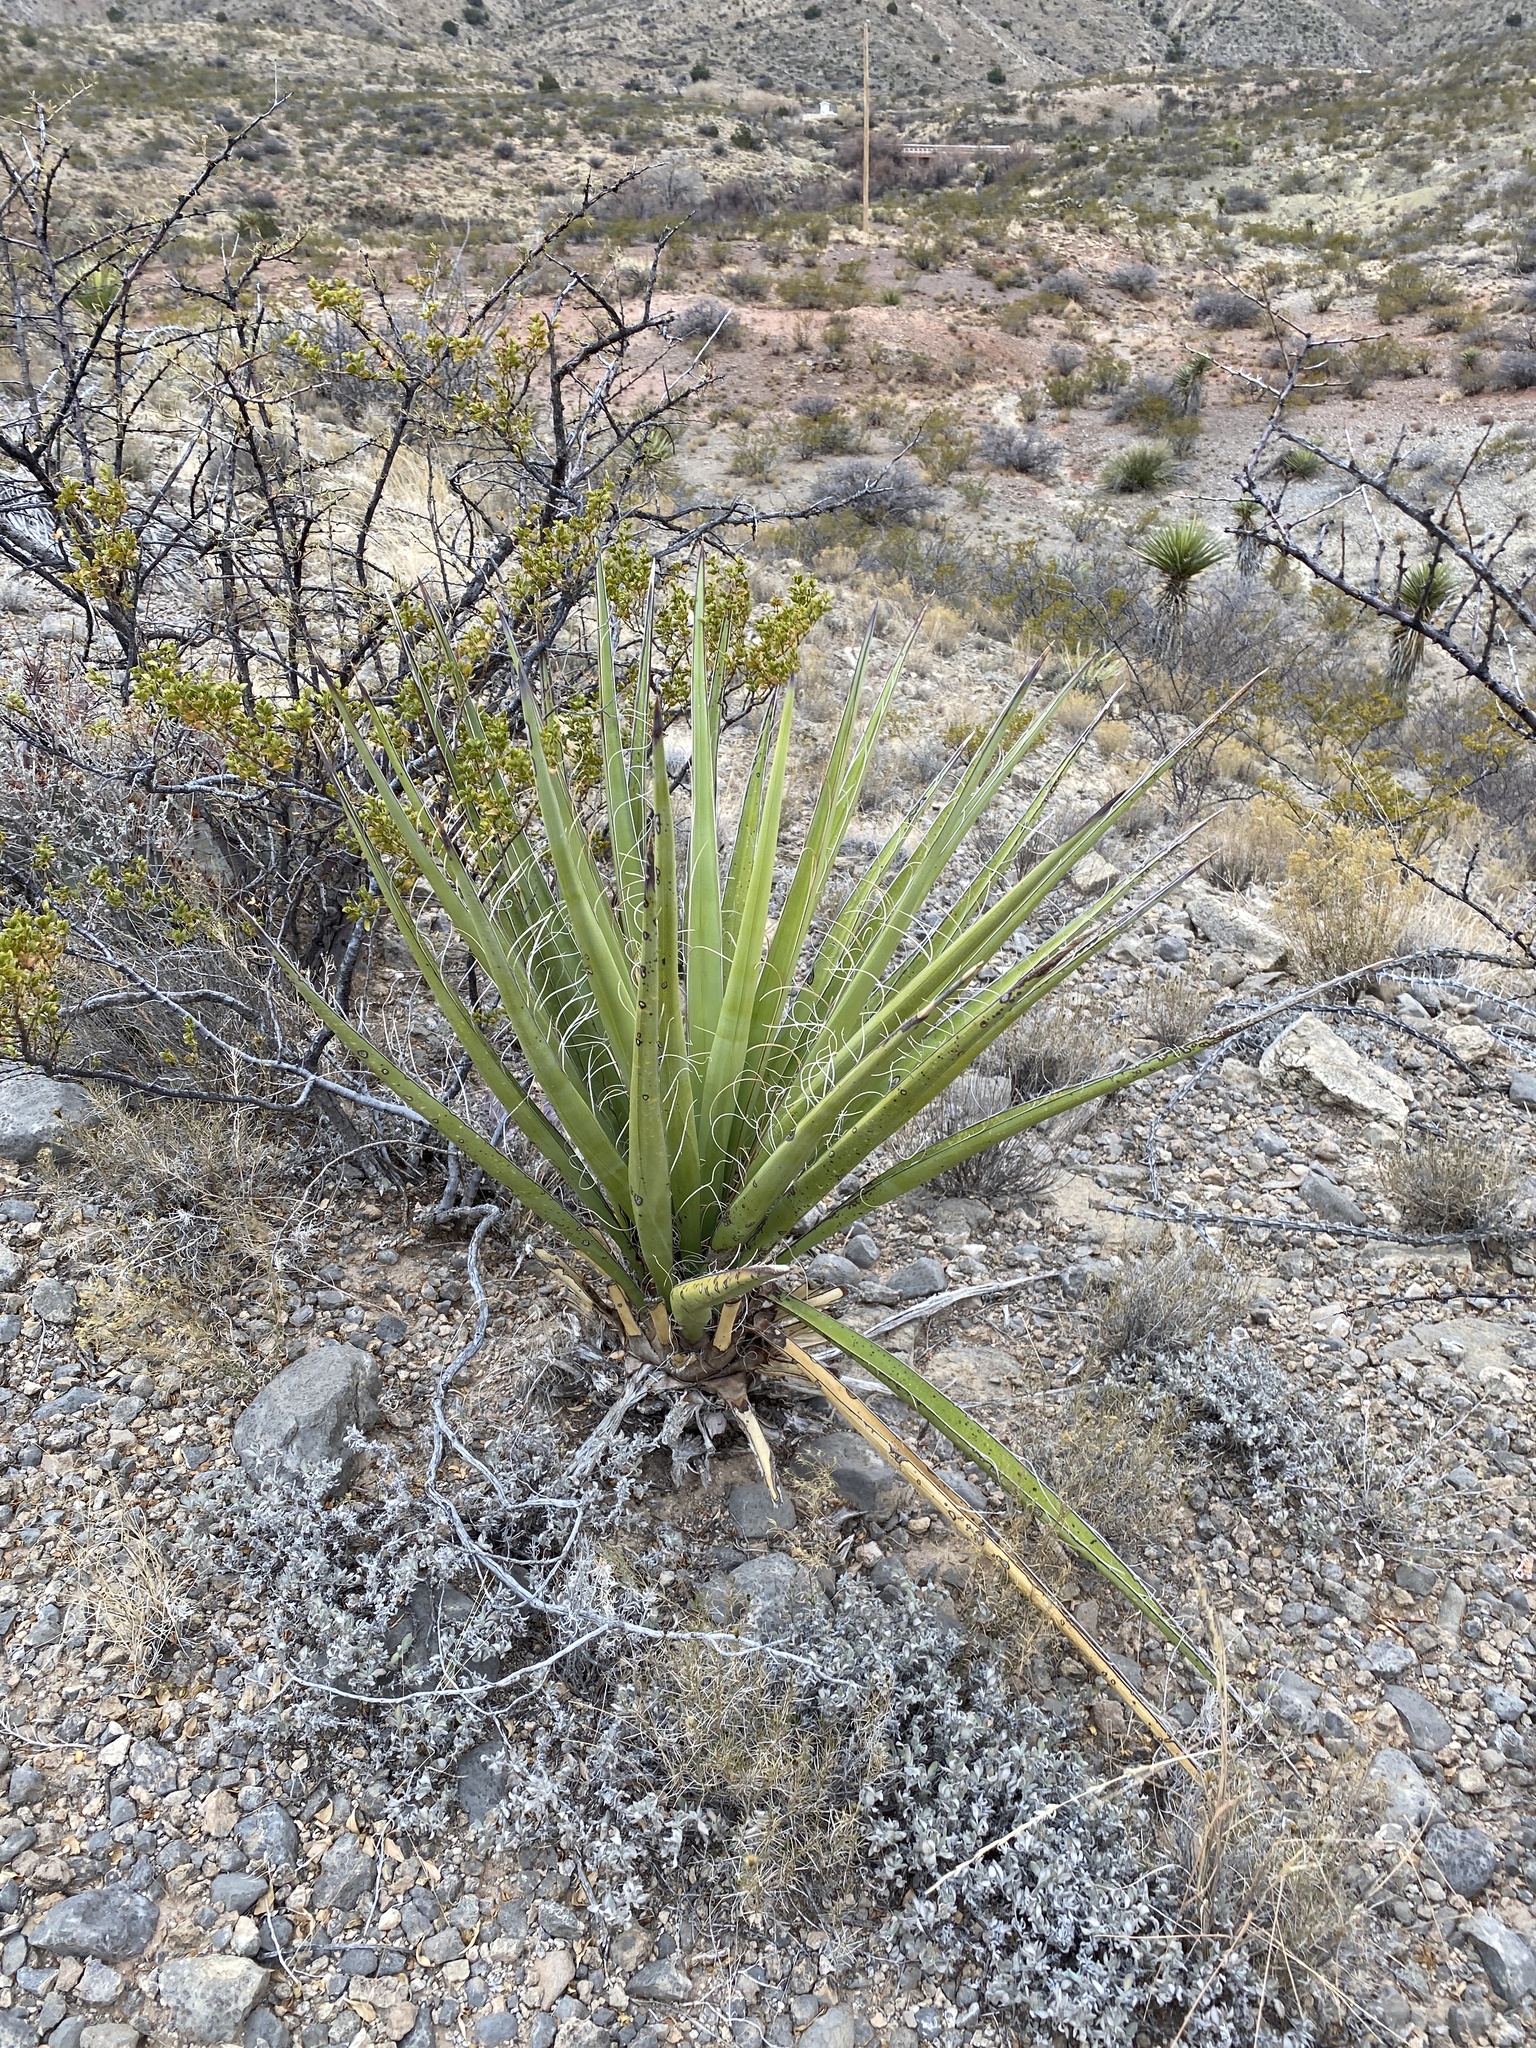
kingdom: Plantae
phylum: Tracheophyta
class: Liliopsida
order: Asparagales
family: Asparagaceae
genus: Yucca
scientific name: Yucca baccata
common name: Banana yucca
